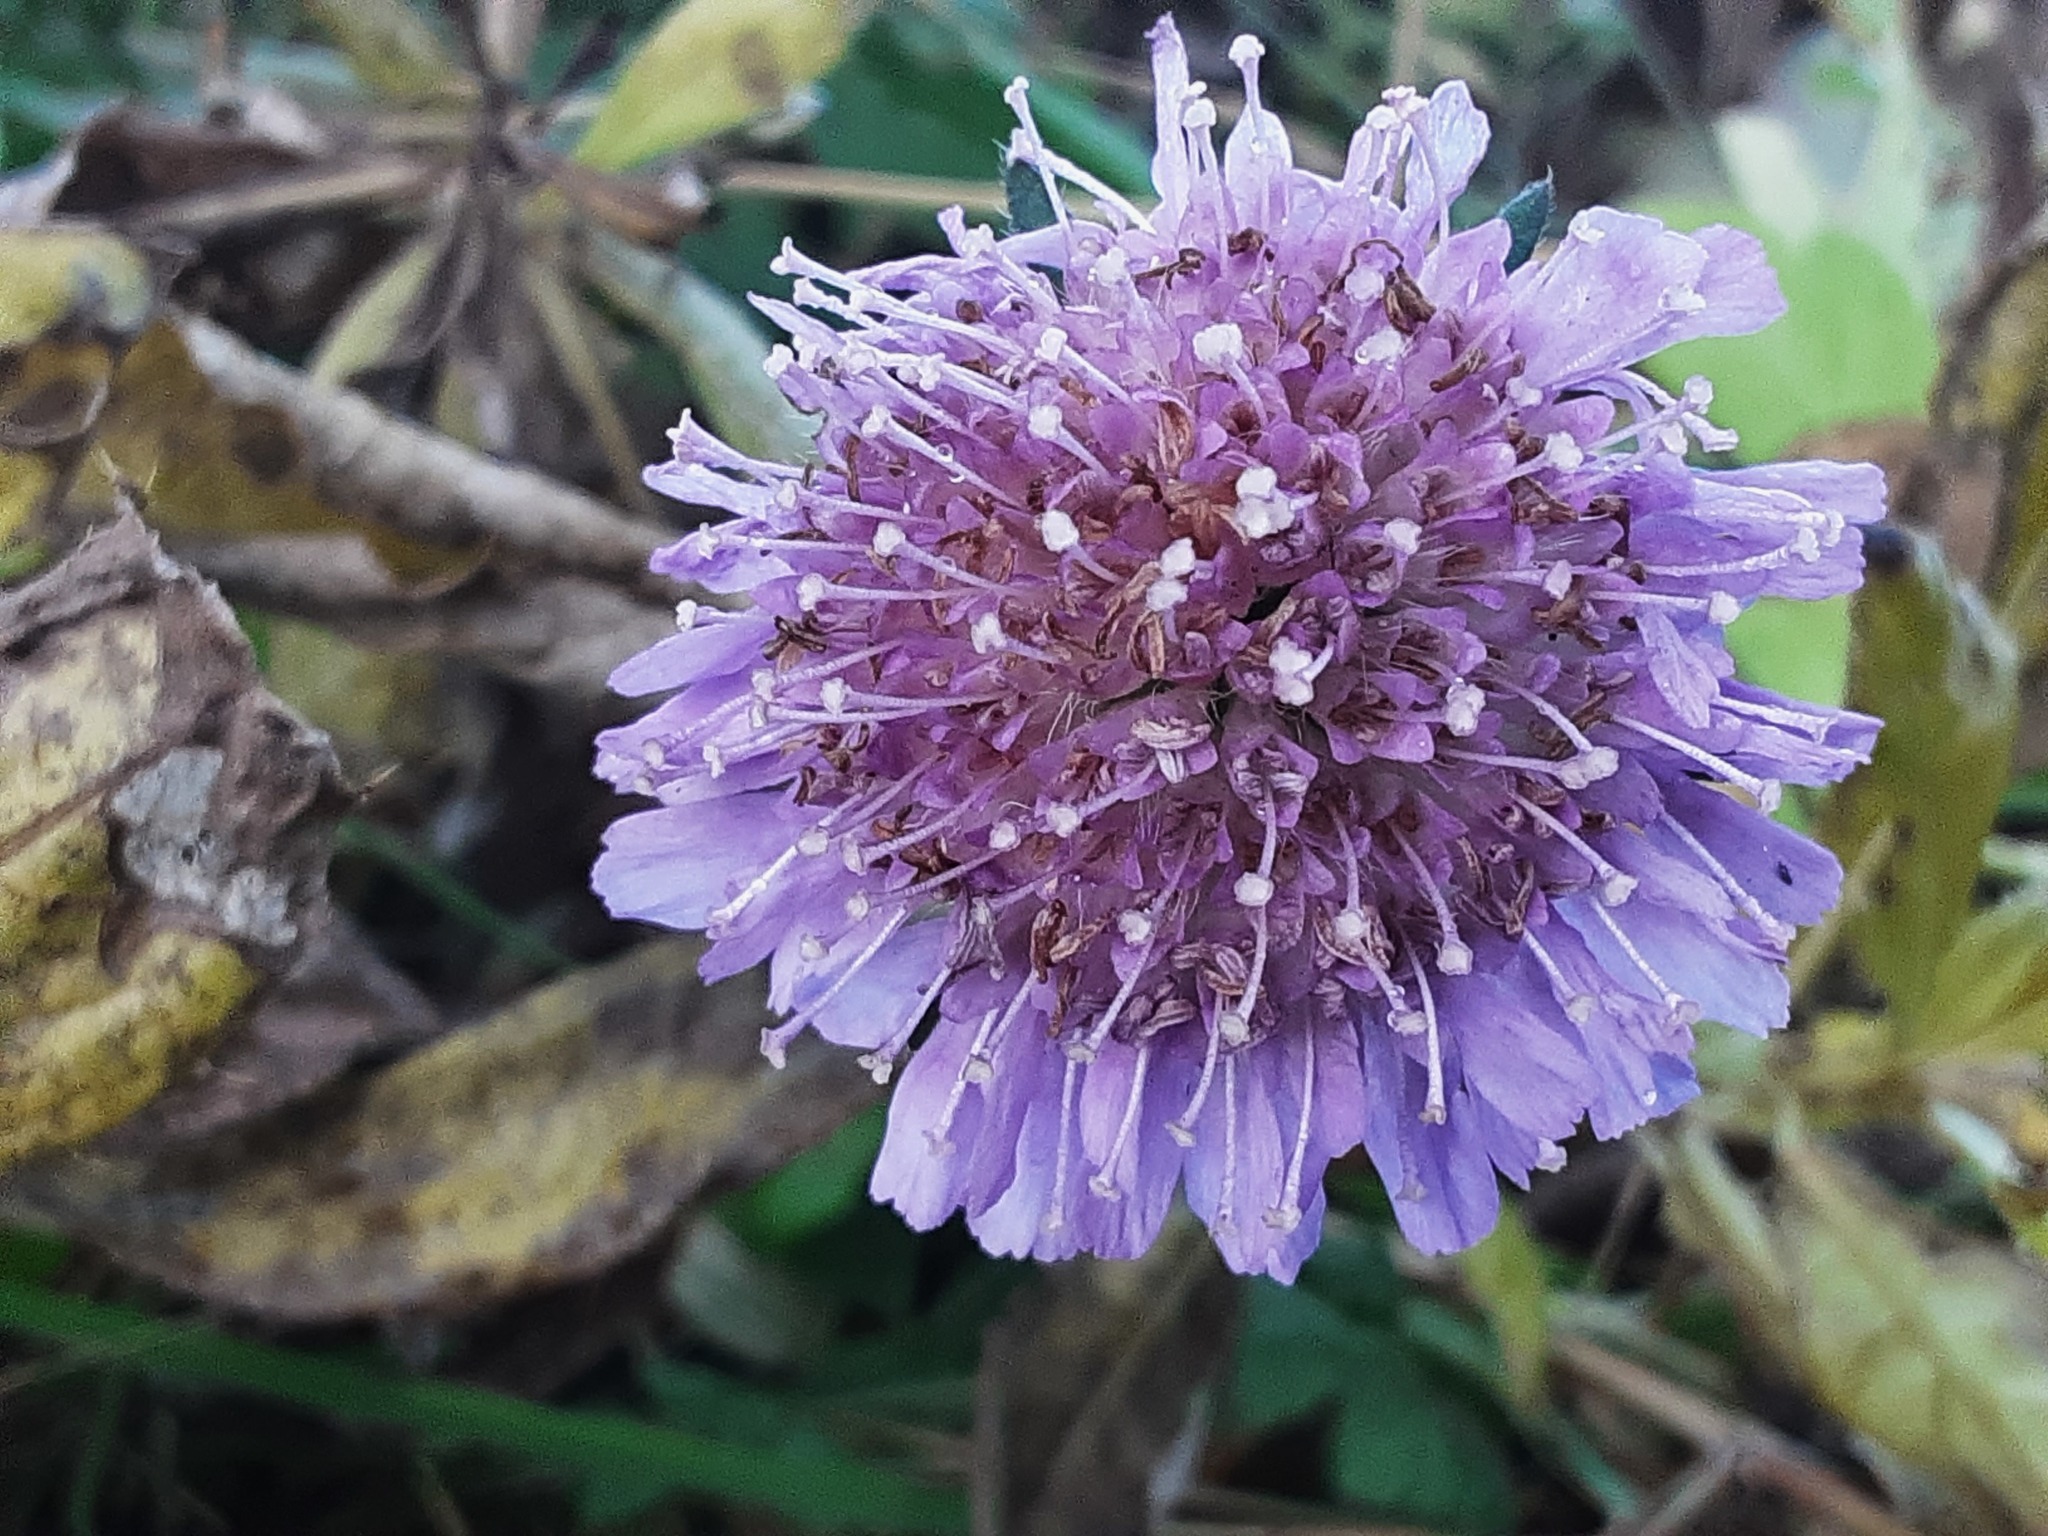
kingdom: Plantae
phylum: Tracheophyta
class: Magnoliopsida
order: Dipsacales
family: Caprifoliaceae
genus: Knautia
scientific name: Knautia arvensis
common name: Field scabiosa
